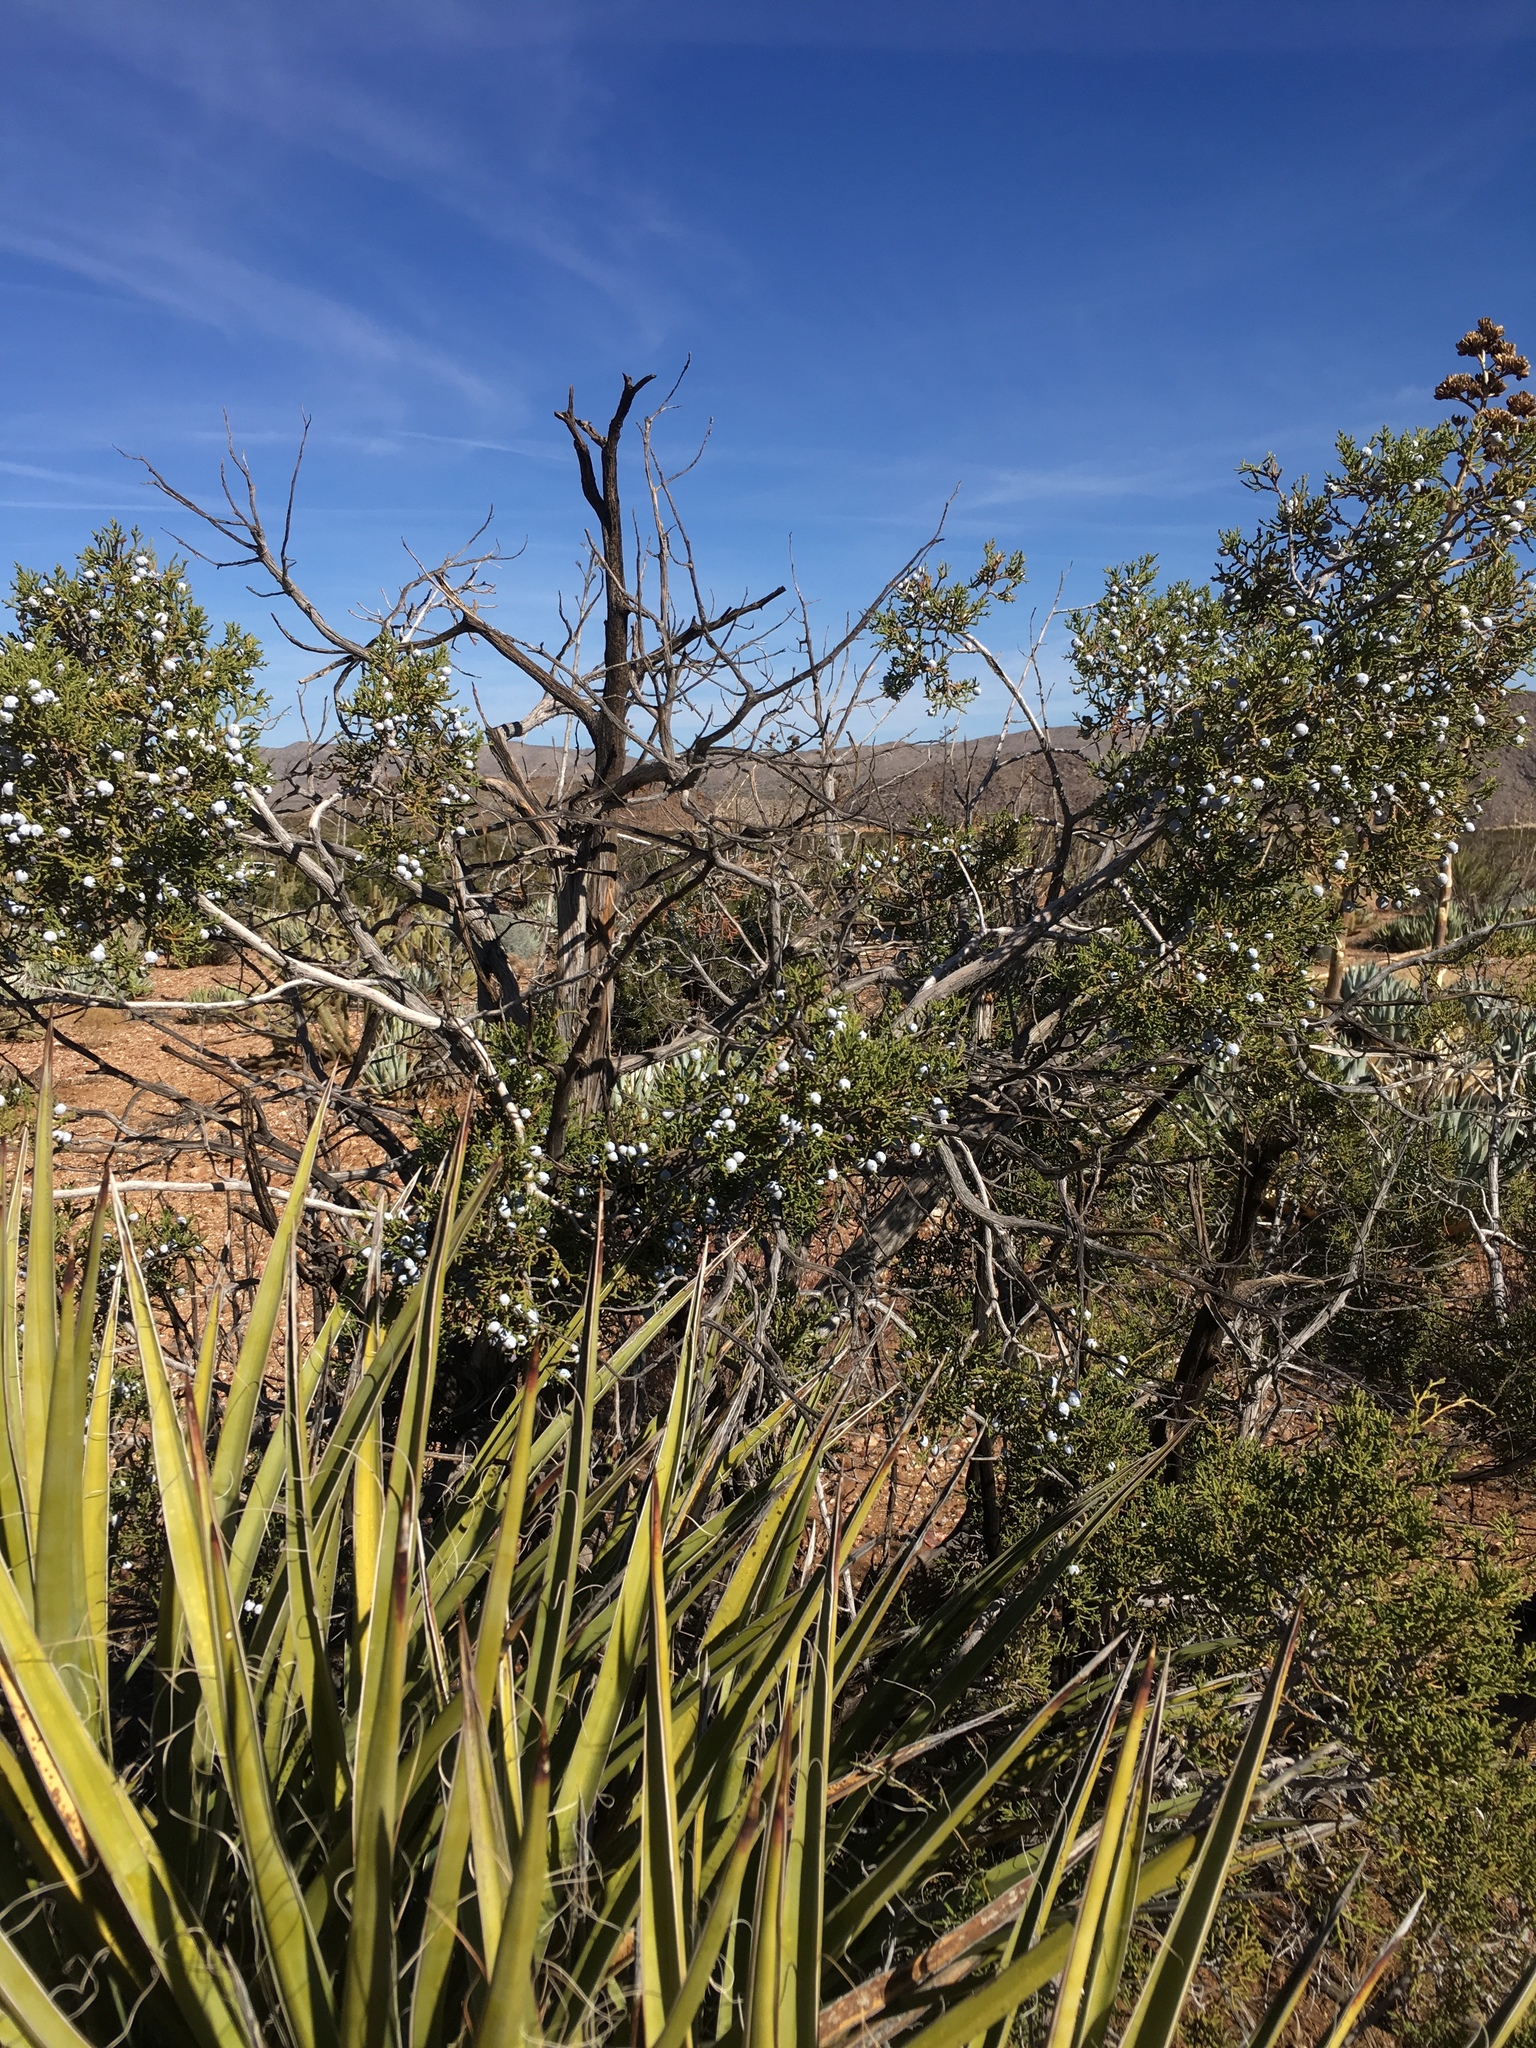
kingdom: Plantae
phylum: Tracheophyta
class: Pinopsida
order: Pinales
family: Cupressaceae
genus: Juniperus
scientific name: Juniperus californica
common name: California juniper
